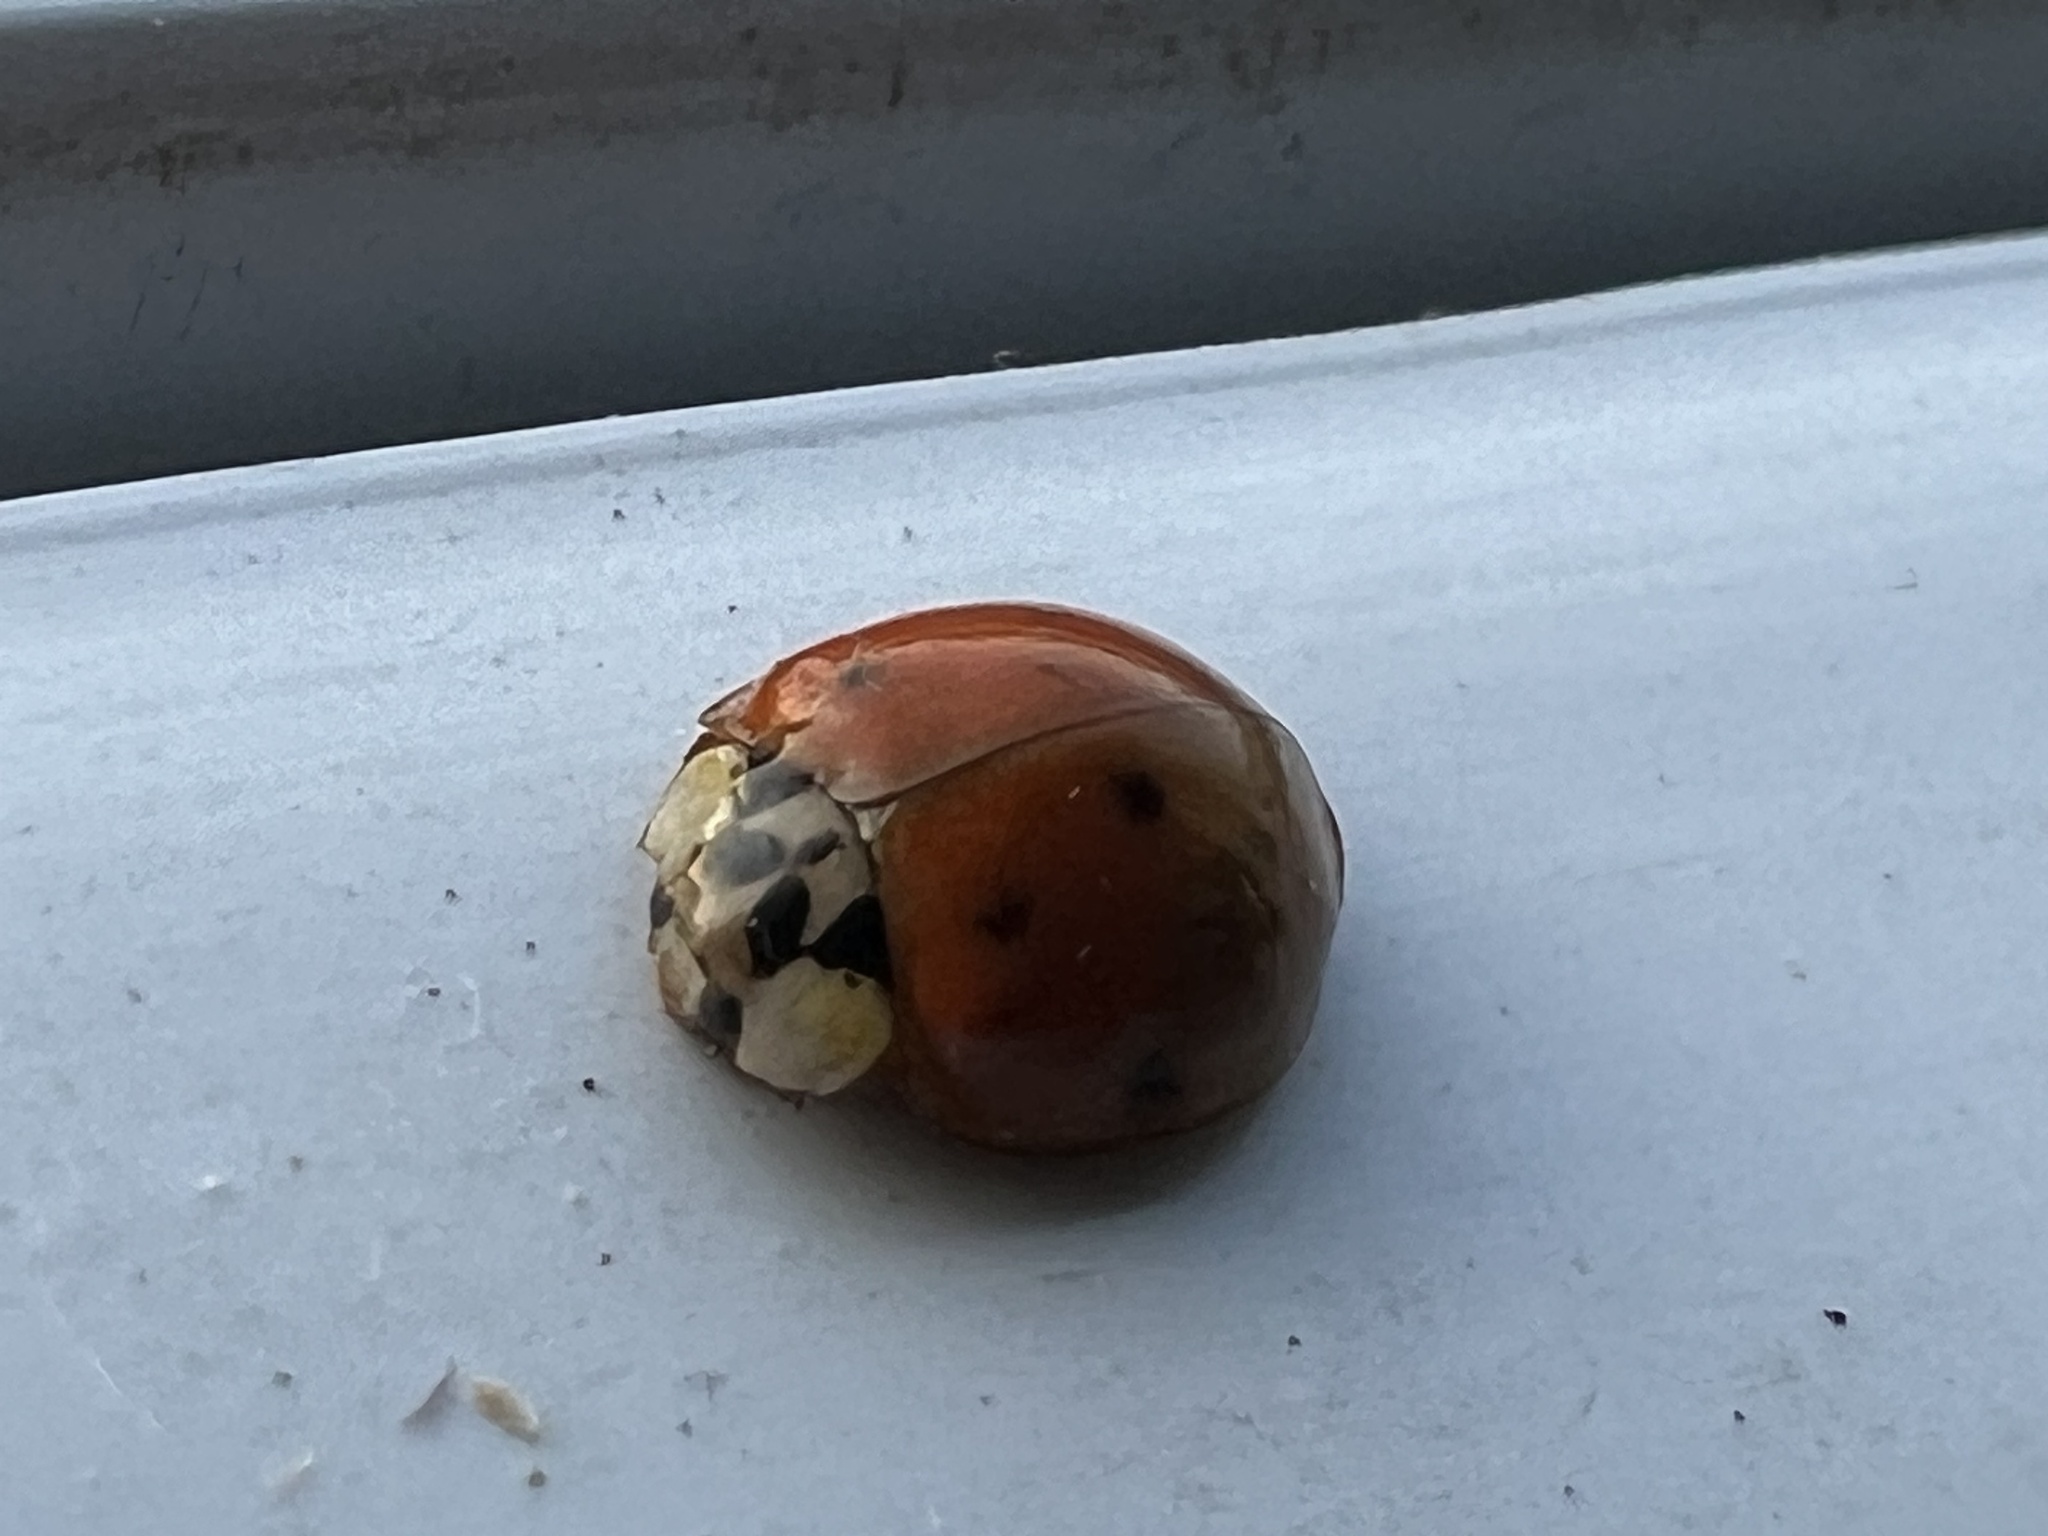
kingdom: Animalia
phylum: Arthropoda
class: Insecta
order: Coleoptera
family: Coccinellidae
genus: Harmonia
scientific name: Harmonia axyridis
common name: Harlequin ladybird
